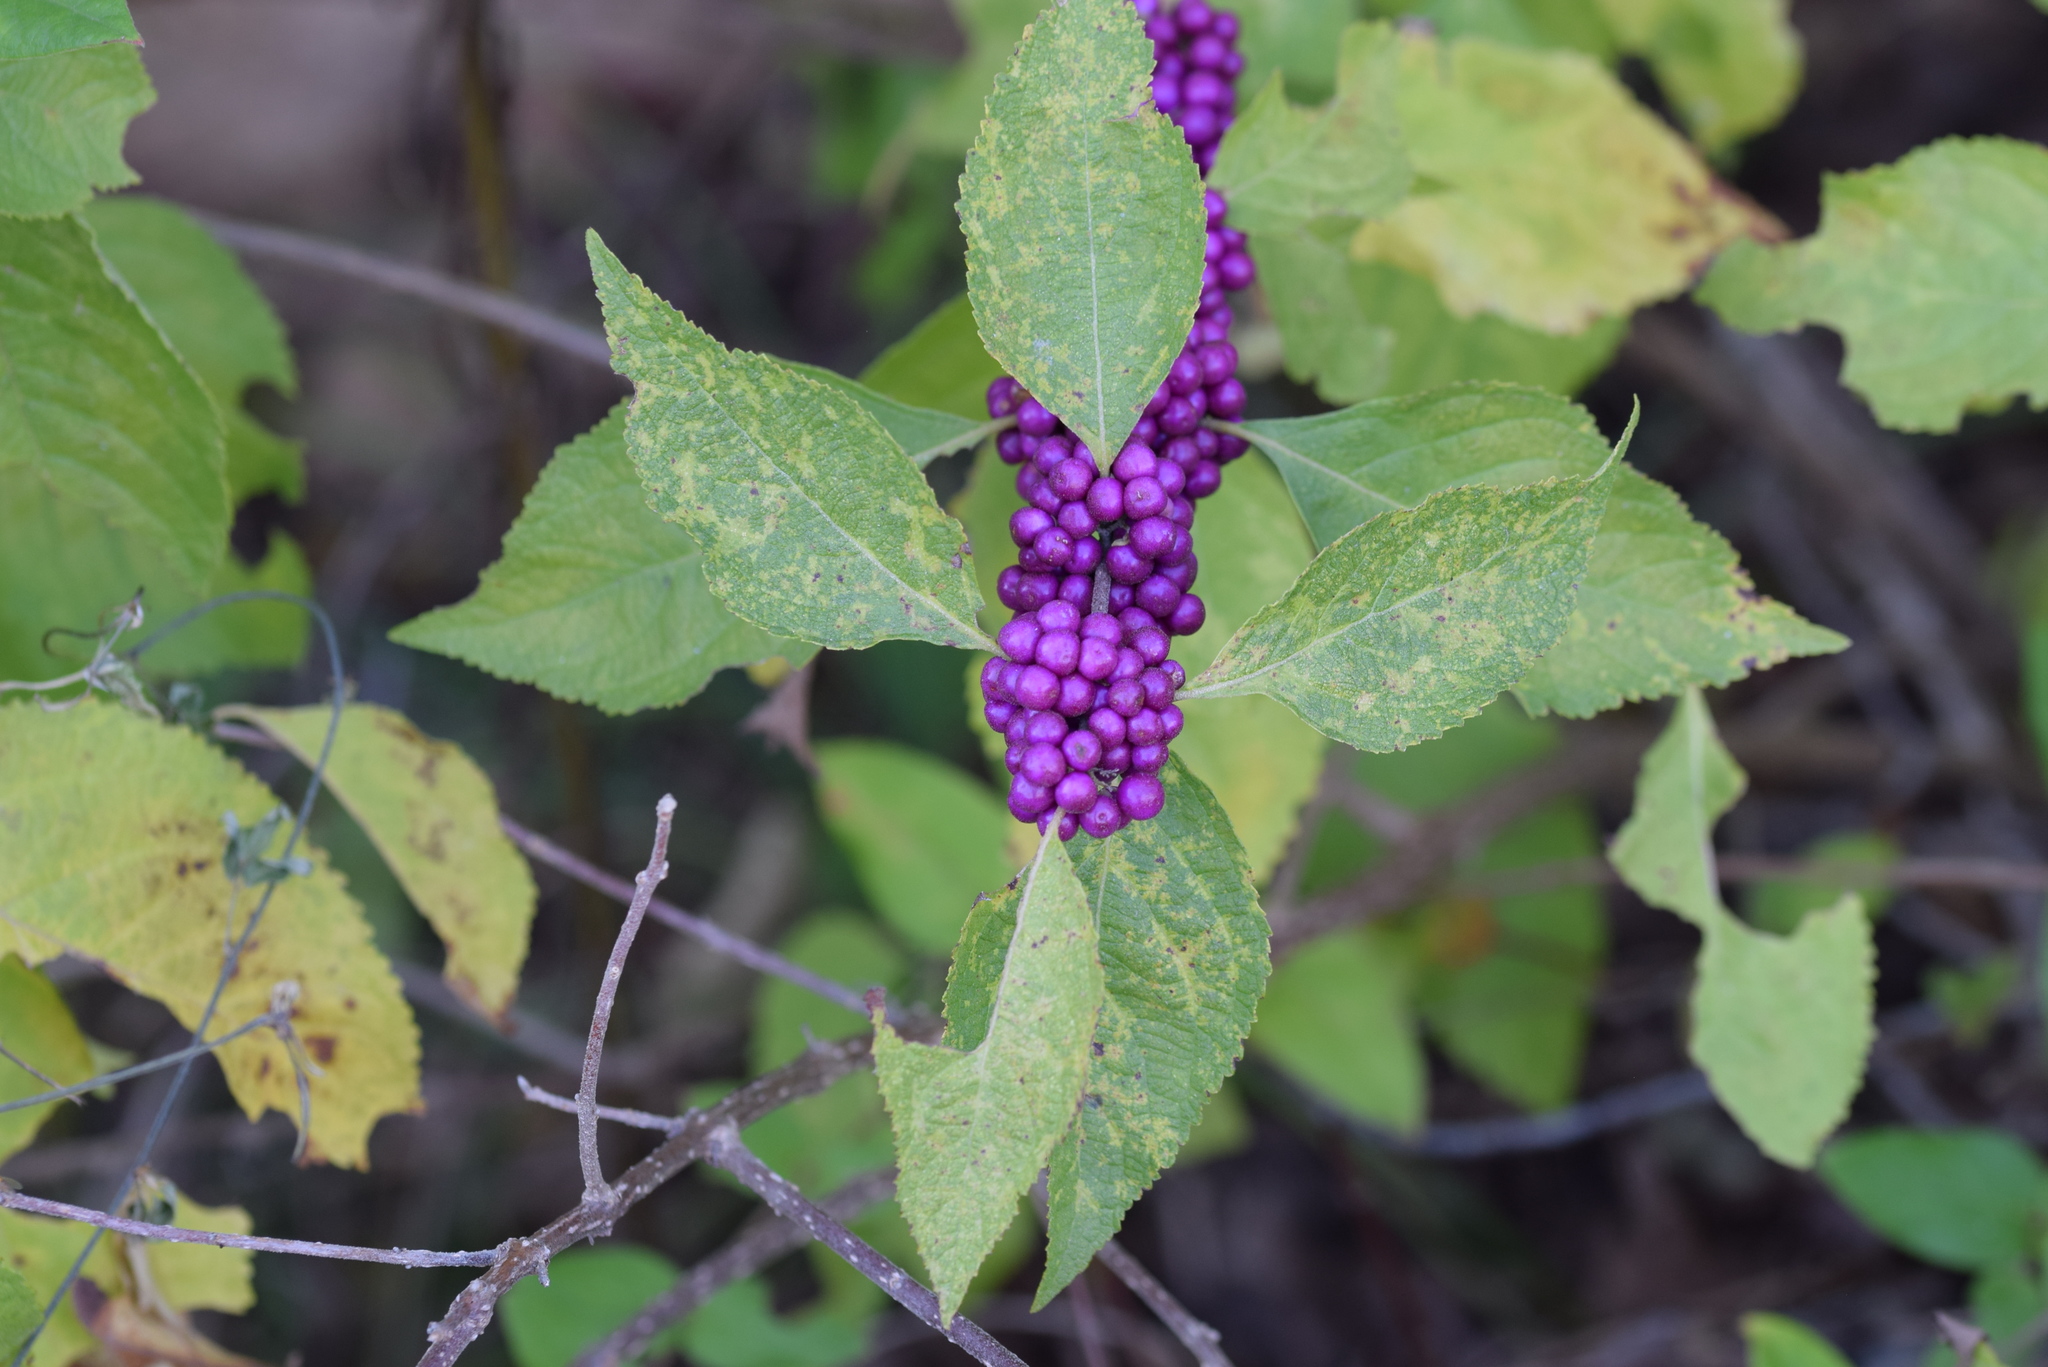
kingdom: Plantae
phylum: Tracheophyta
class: Magnoliopsida
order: Lamiales
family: Lamiaceae
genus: Callicarpa
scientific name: Callicarpa americana
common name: American beautyberry
